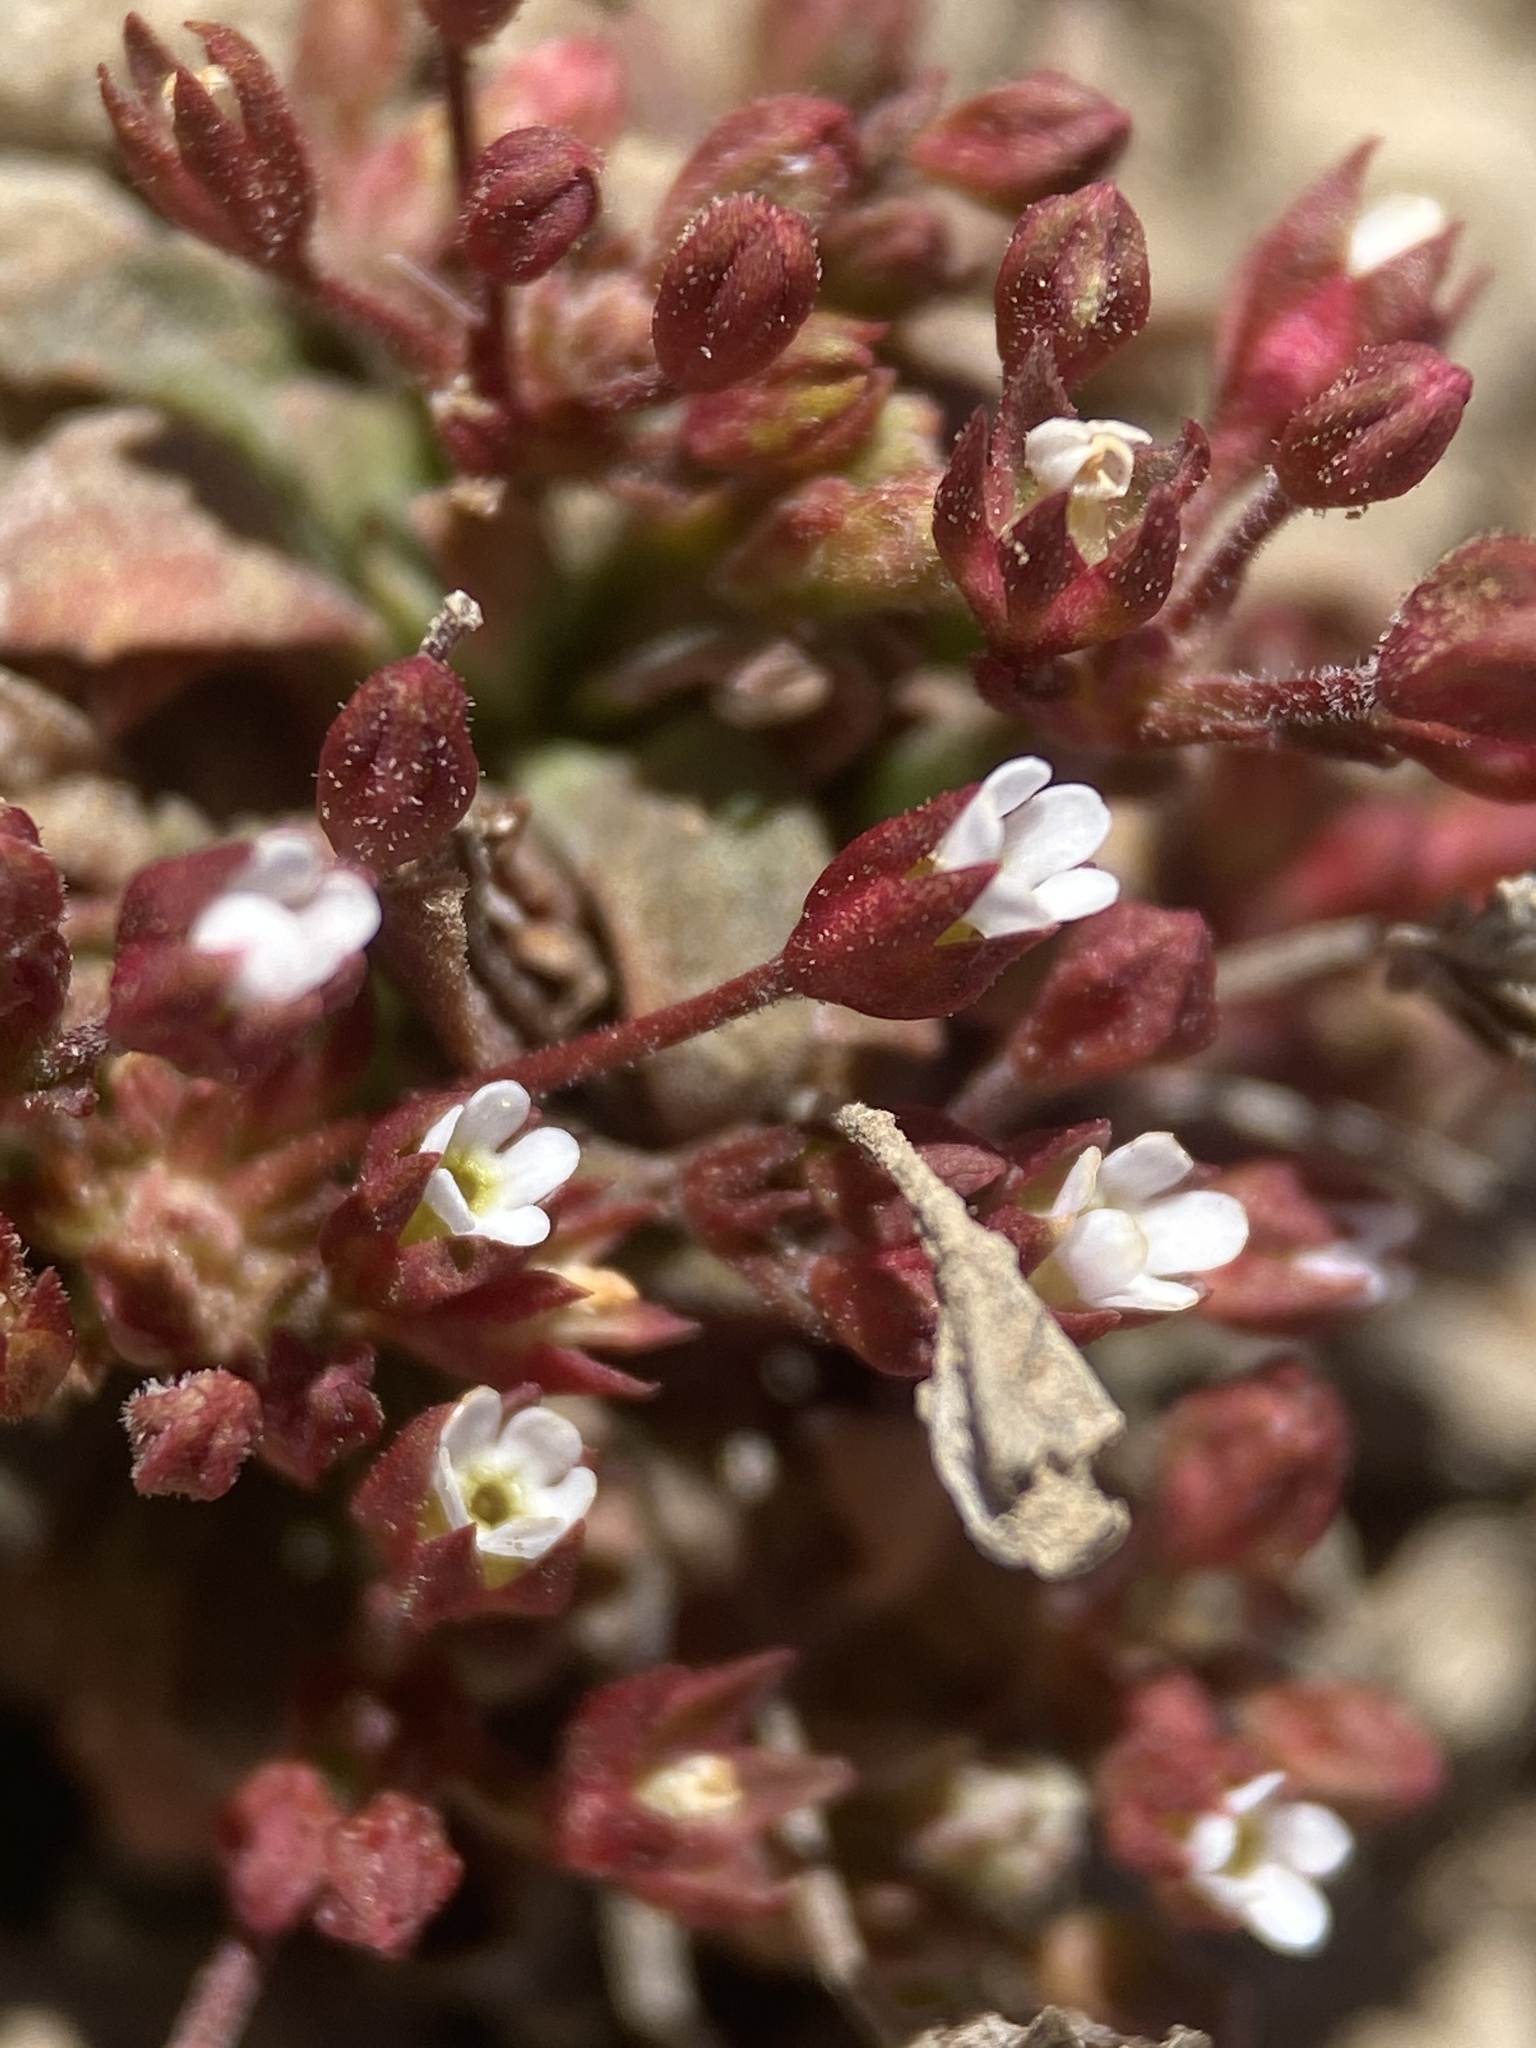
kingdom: Plantae
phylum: Tracheophyta
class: Magnoliopsida
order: Ericales
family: Primulaceae
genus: Androsace
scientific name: Androsace septentrionalis
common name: Hairy northern fairy-candelabra
